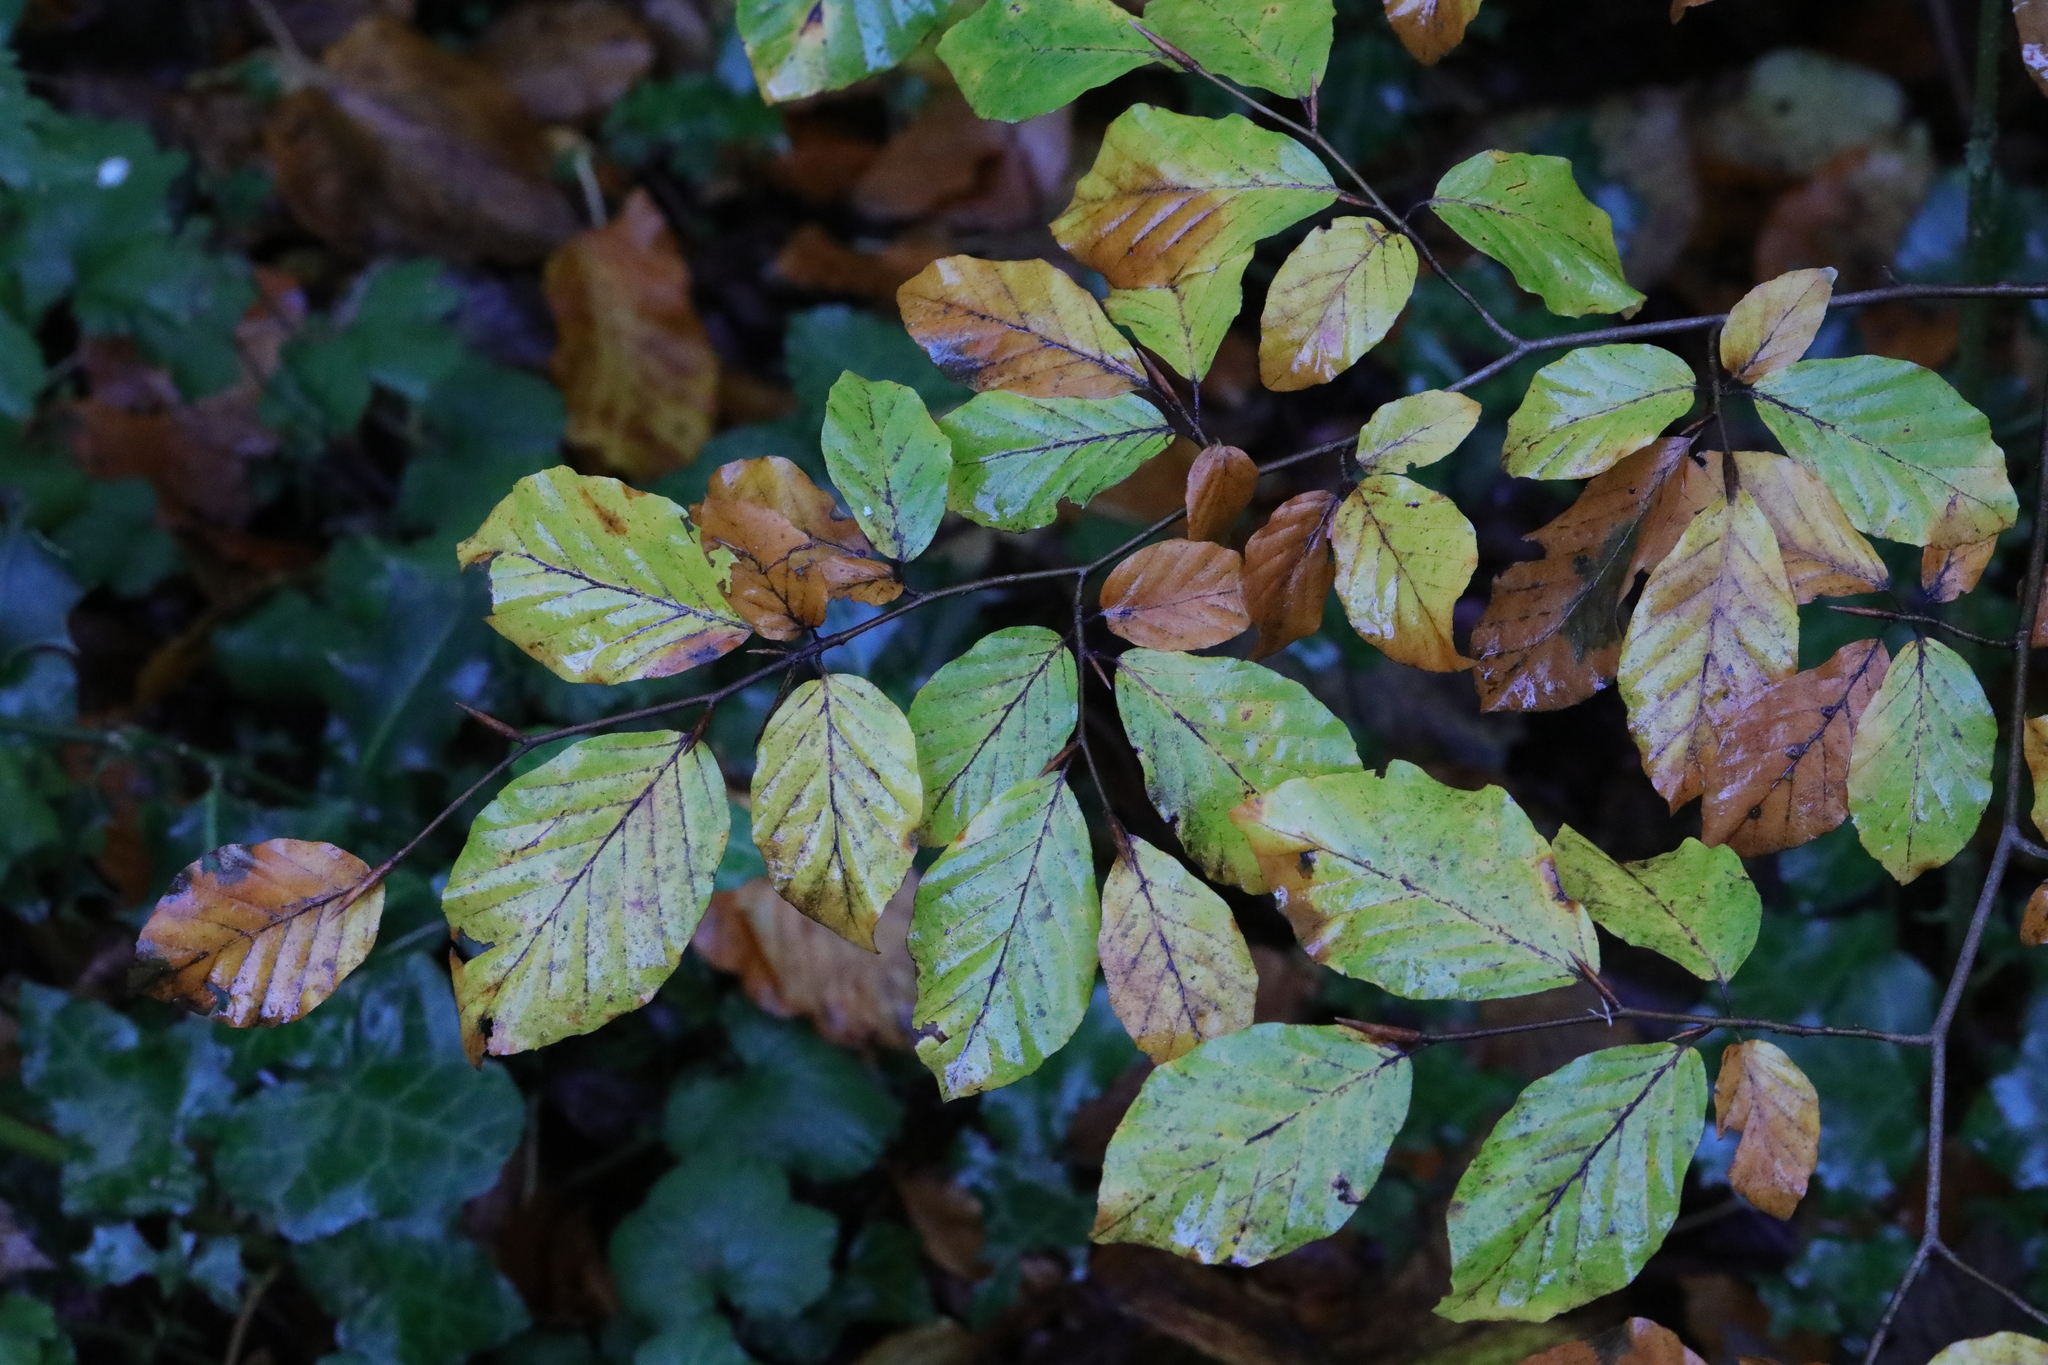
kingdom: Plantae
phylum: Tracheophyta
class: Magnoliopsida
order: Fagales
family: Fagaceae
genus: Fagus
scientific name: Fagus sylvatica
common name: Beech
